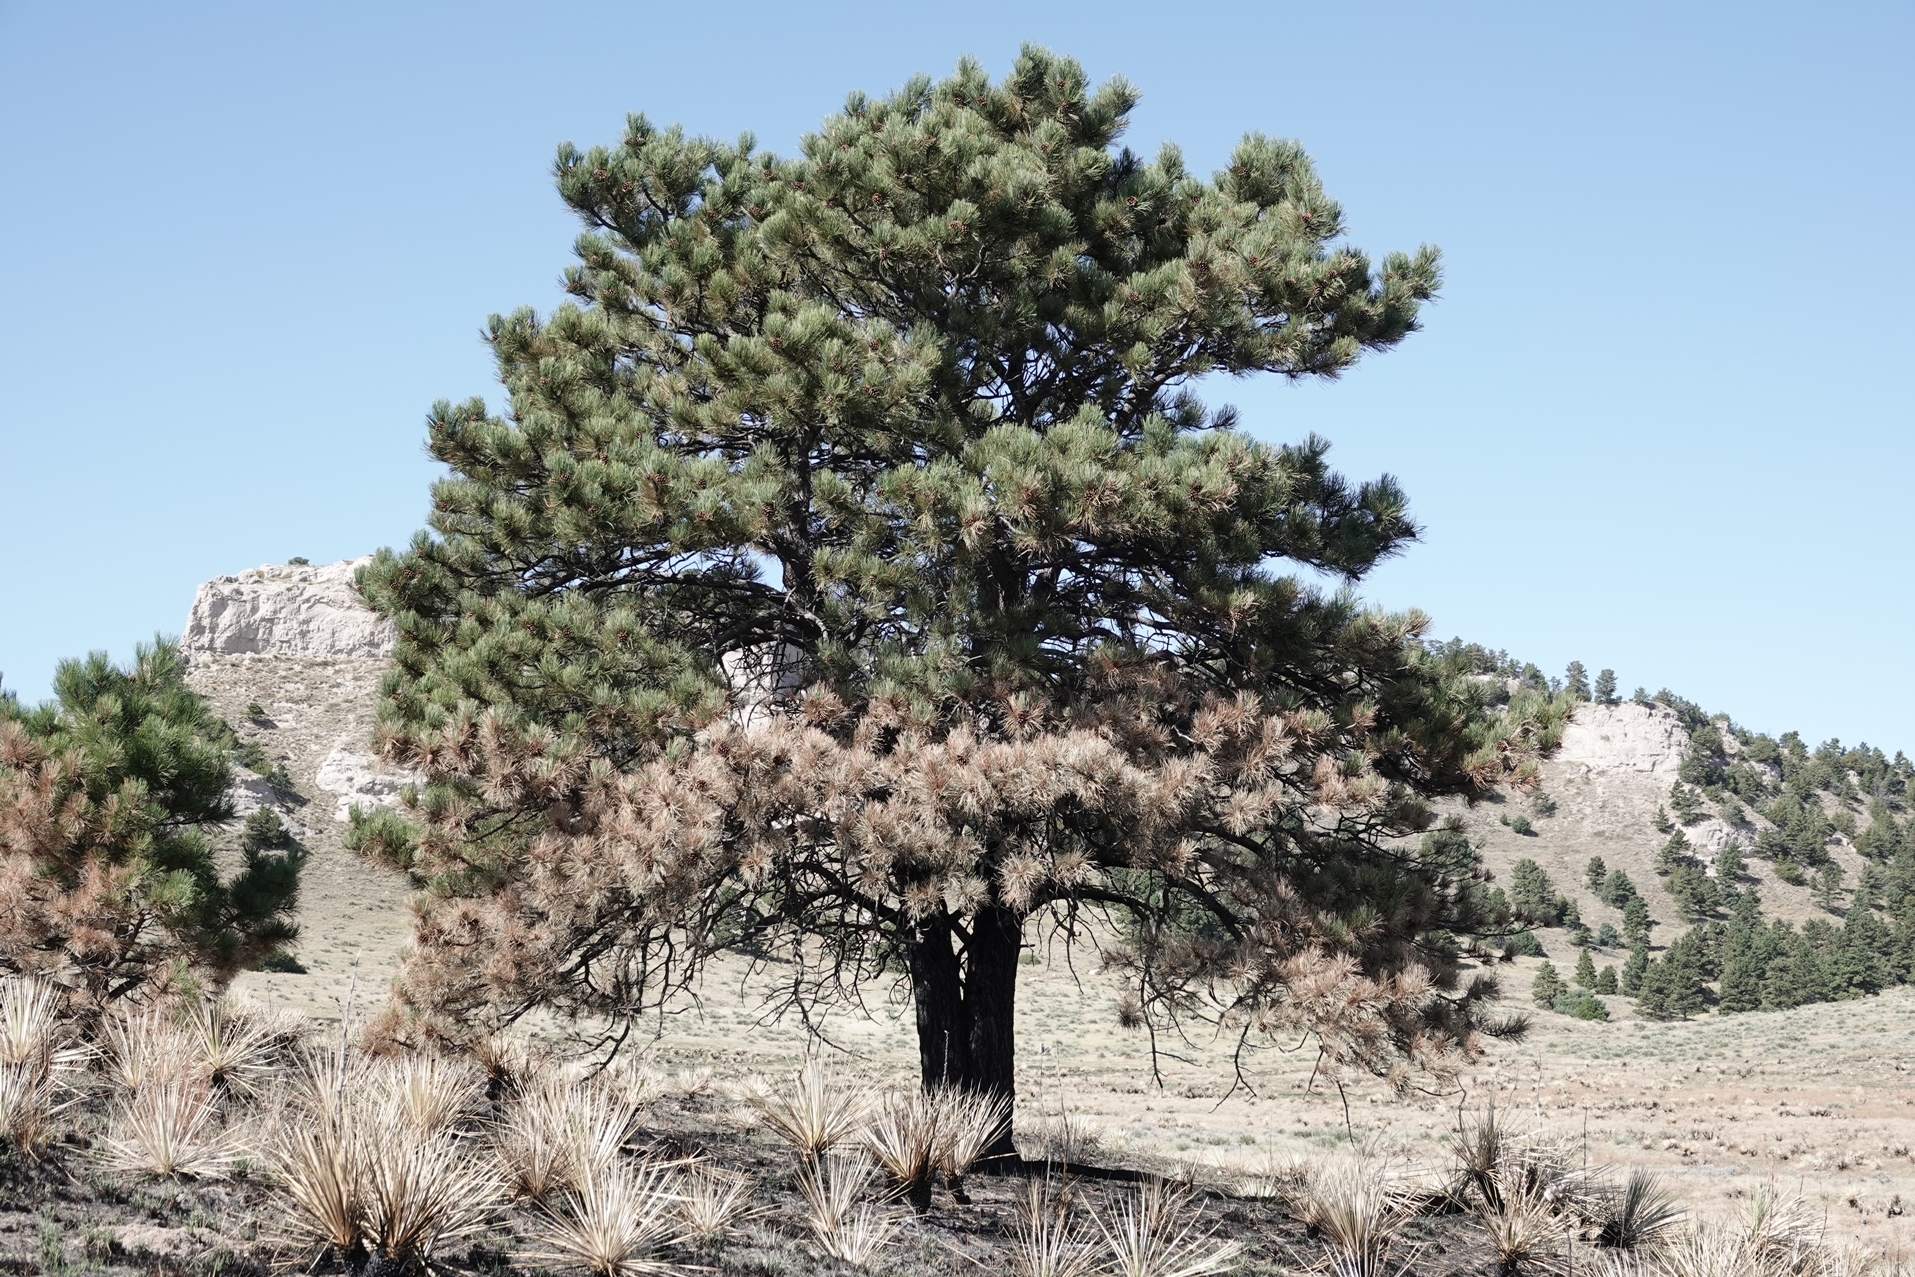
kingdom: Plantae
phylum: Tracheophyta
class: Pinopsida
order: Pinales
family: Pinaceae
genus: Pinus
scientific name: Pinus ponderosa
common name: Western yellow-pine
